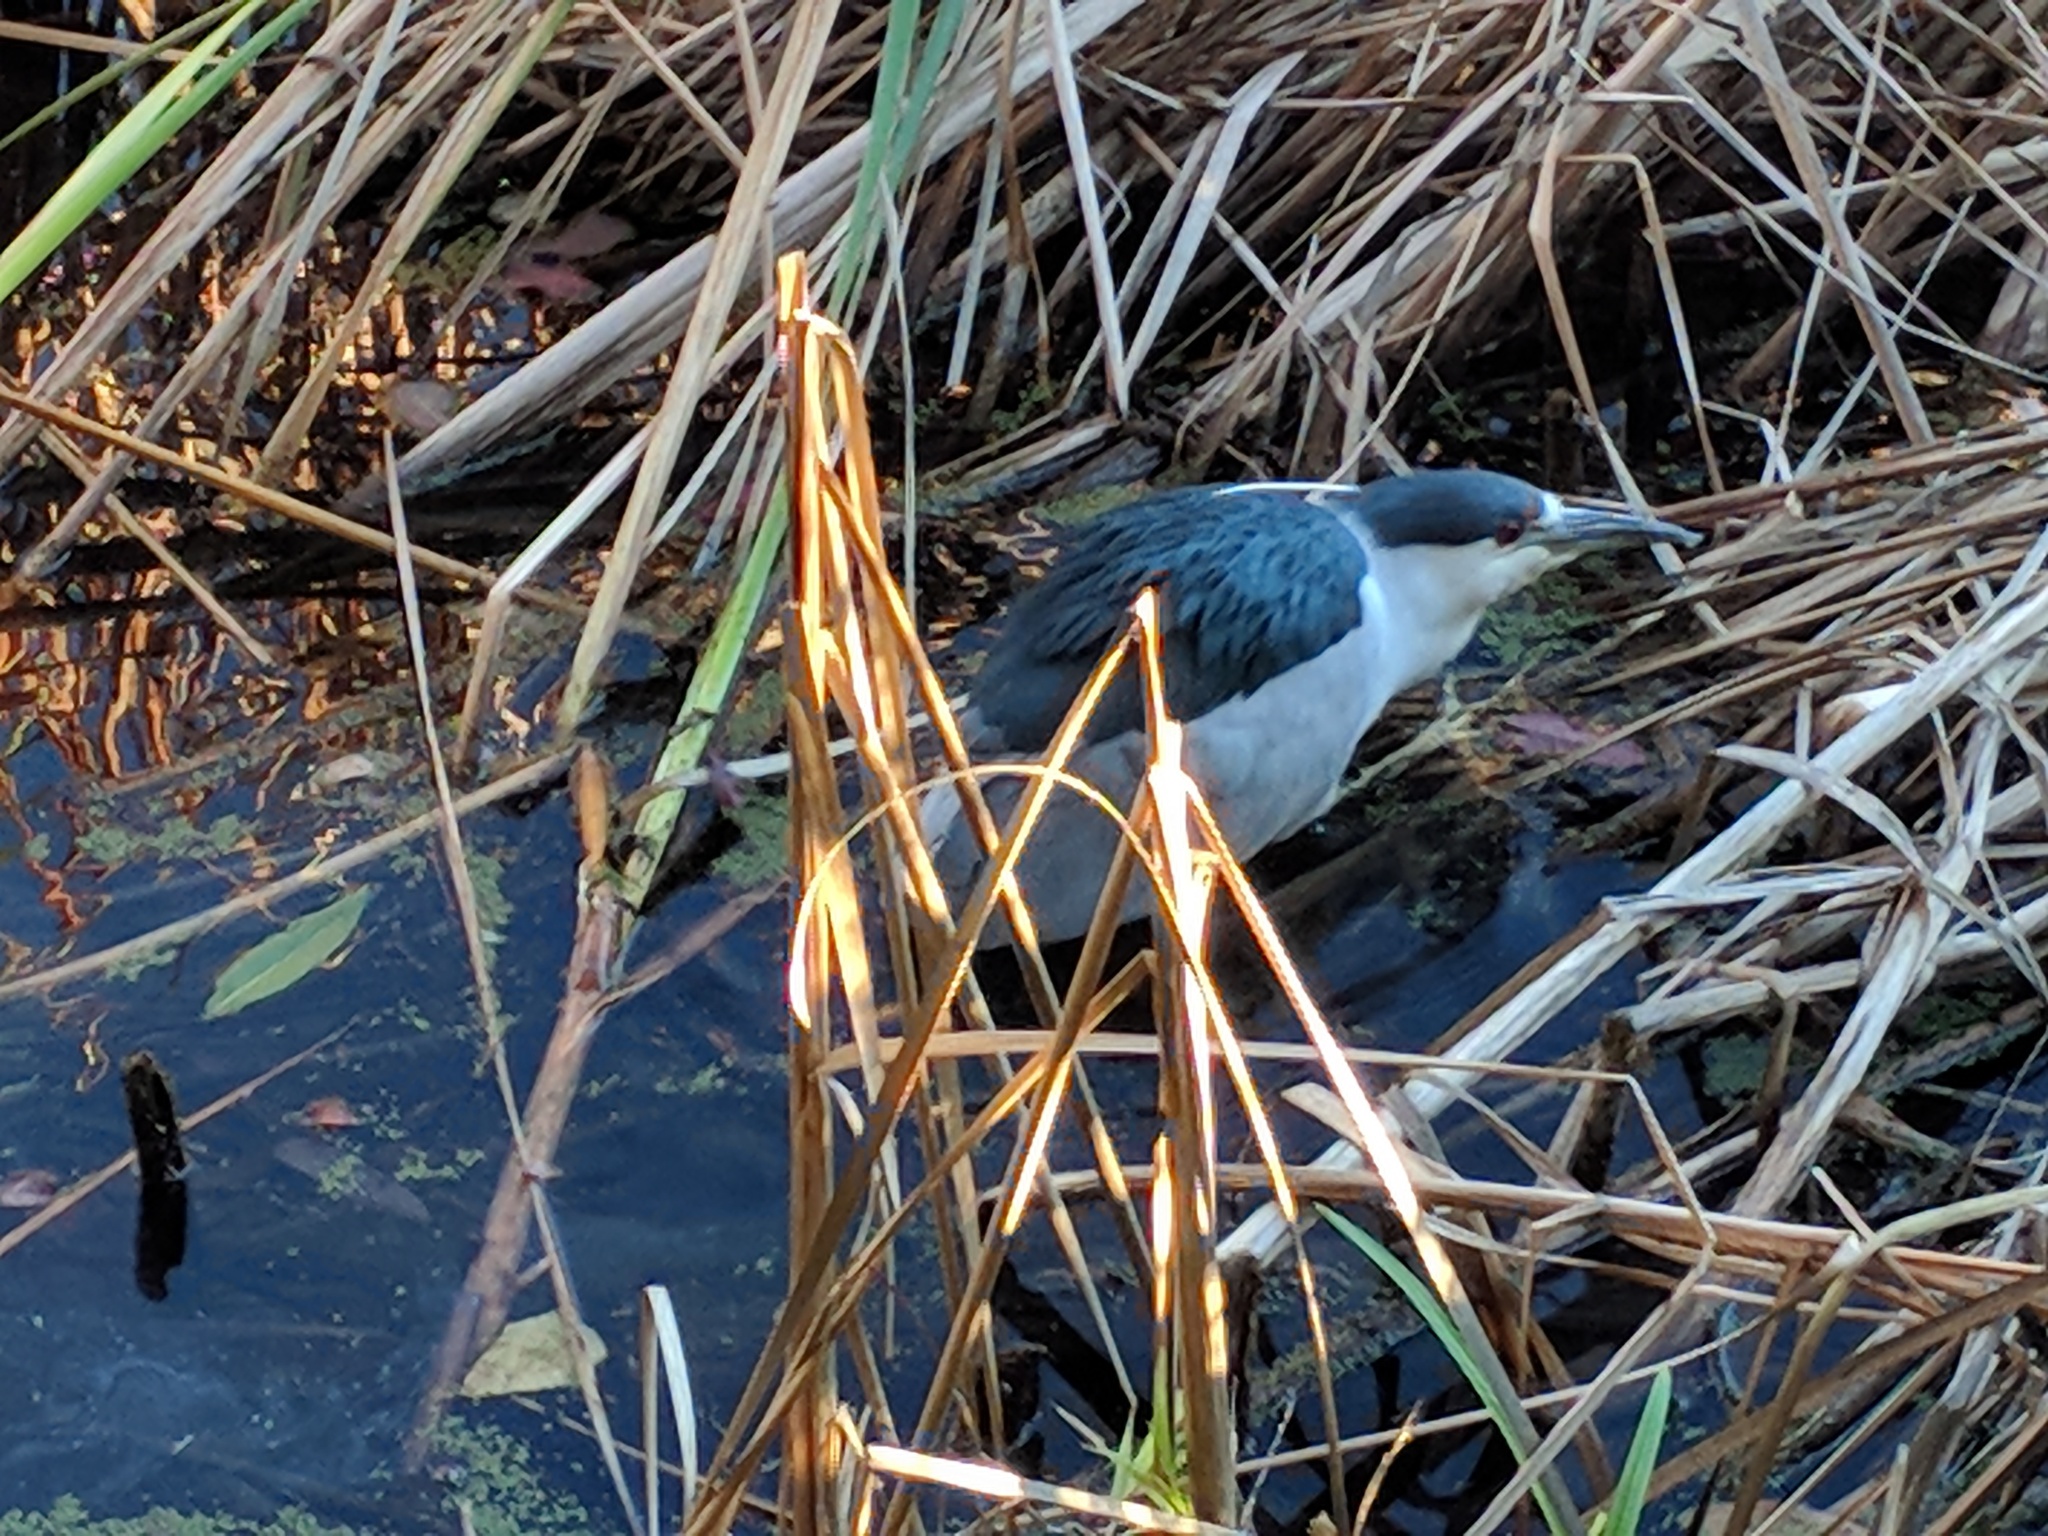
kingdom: Animalia
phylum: Chordata
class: Aves
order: Pelecaniformes
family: Ardeidae
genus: Nycticorax
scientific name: Nycticorax nycticorax
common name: Black-crowned night heron
